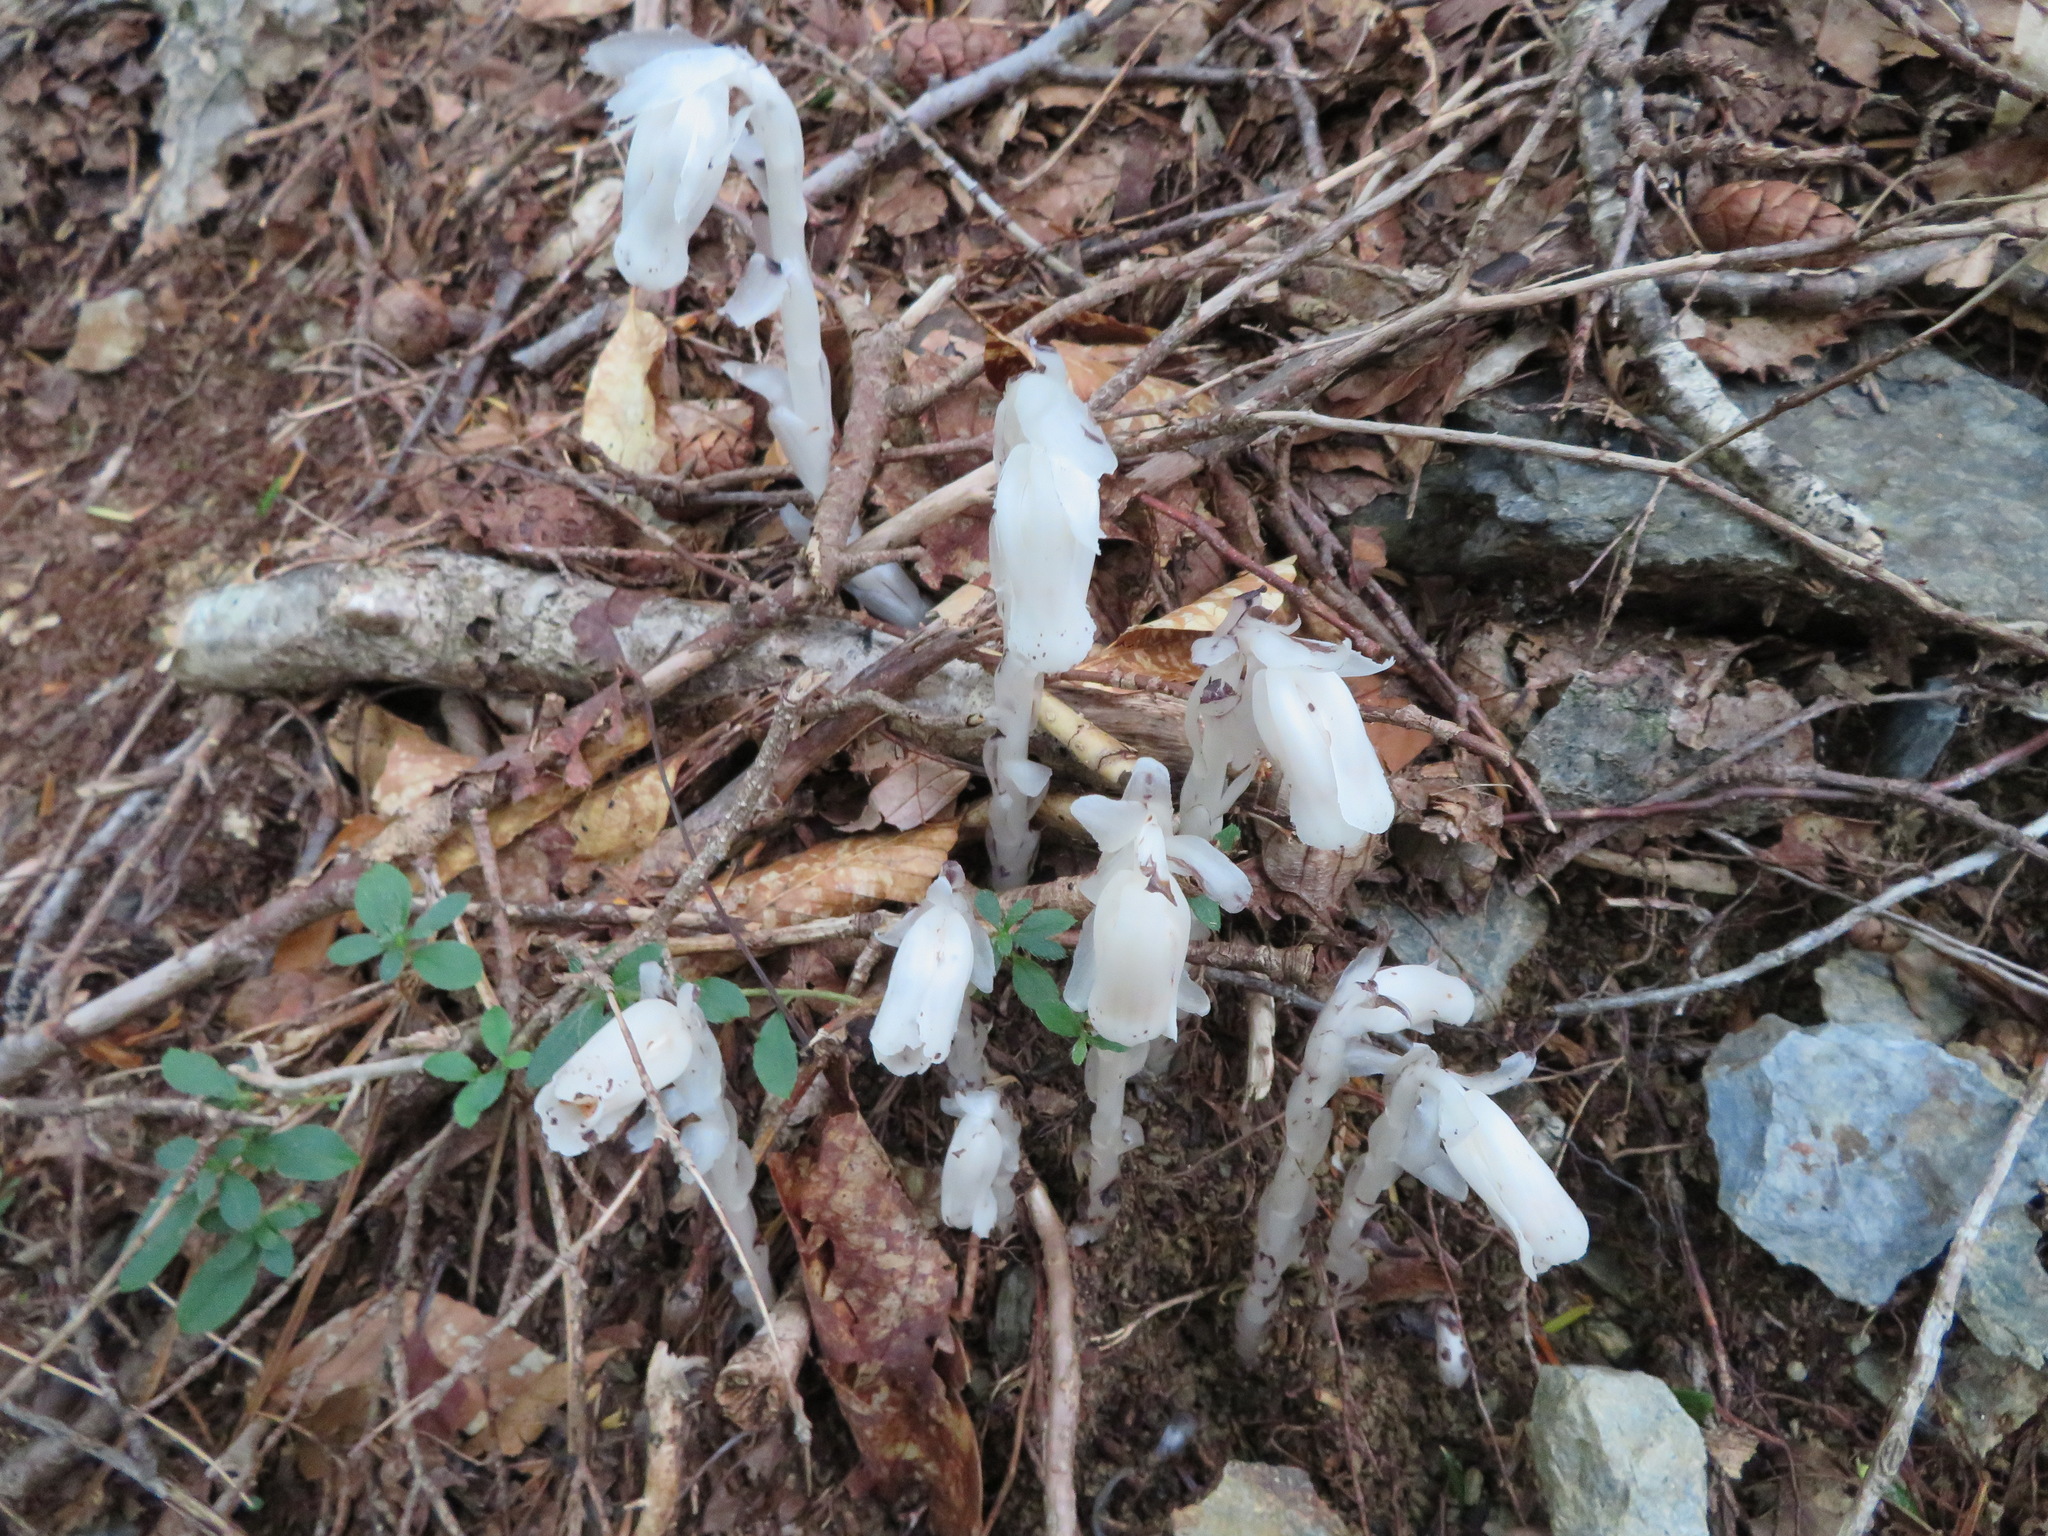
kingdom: Plantae
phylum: Tracheophyta
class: Magnoliopsida
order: Ericales
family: Ericaceae
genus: Monotropastrum
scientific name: Monotropastrum humile
